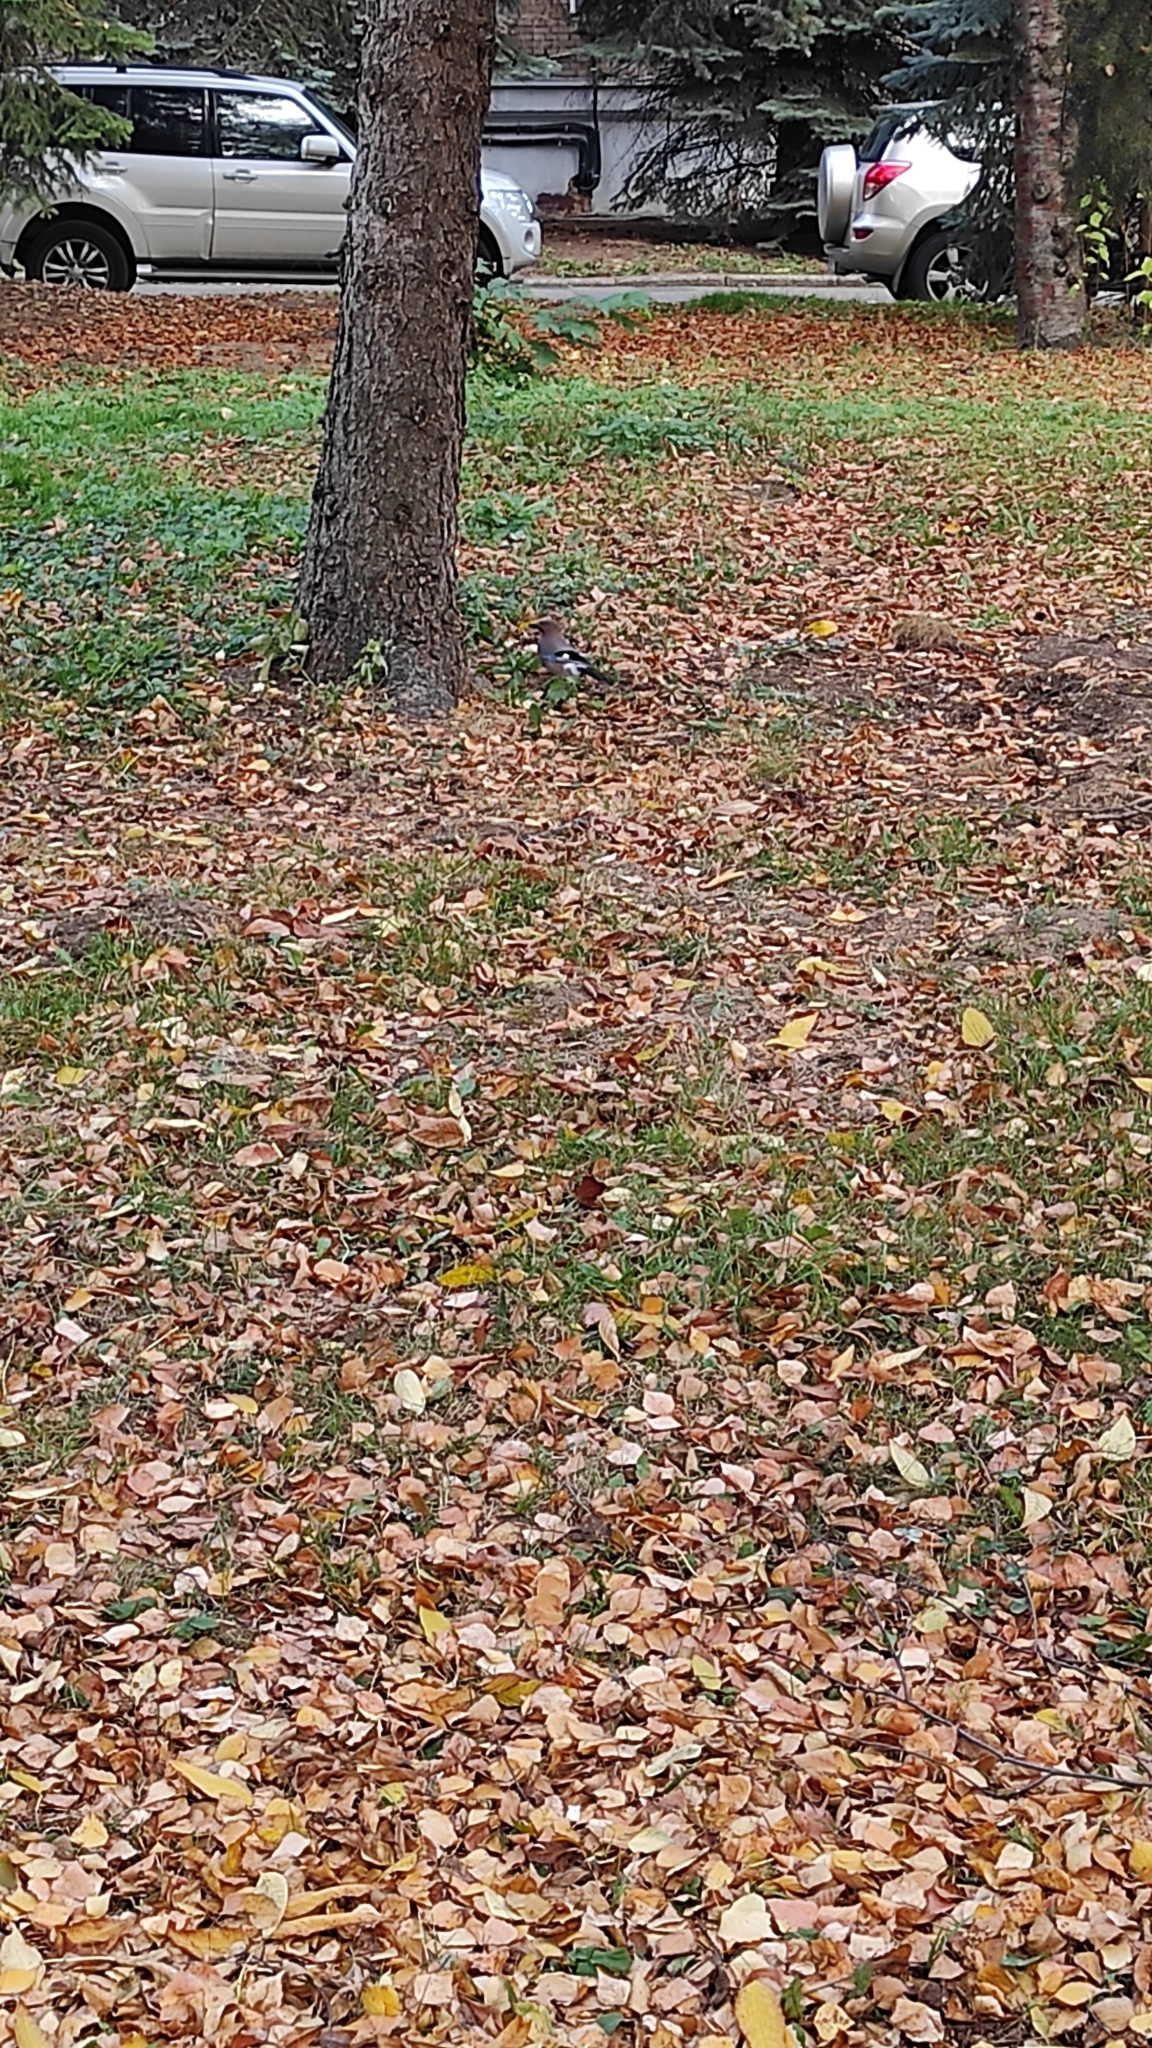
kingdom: Animalia
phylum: Chordata
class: Aves
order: Passeriformes
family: Corvidae
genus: Garrulus
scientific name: Garrulus glandarius
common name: Eurasian jay
